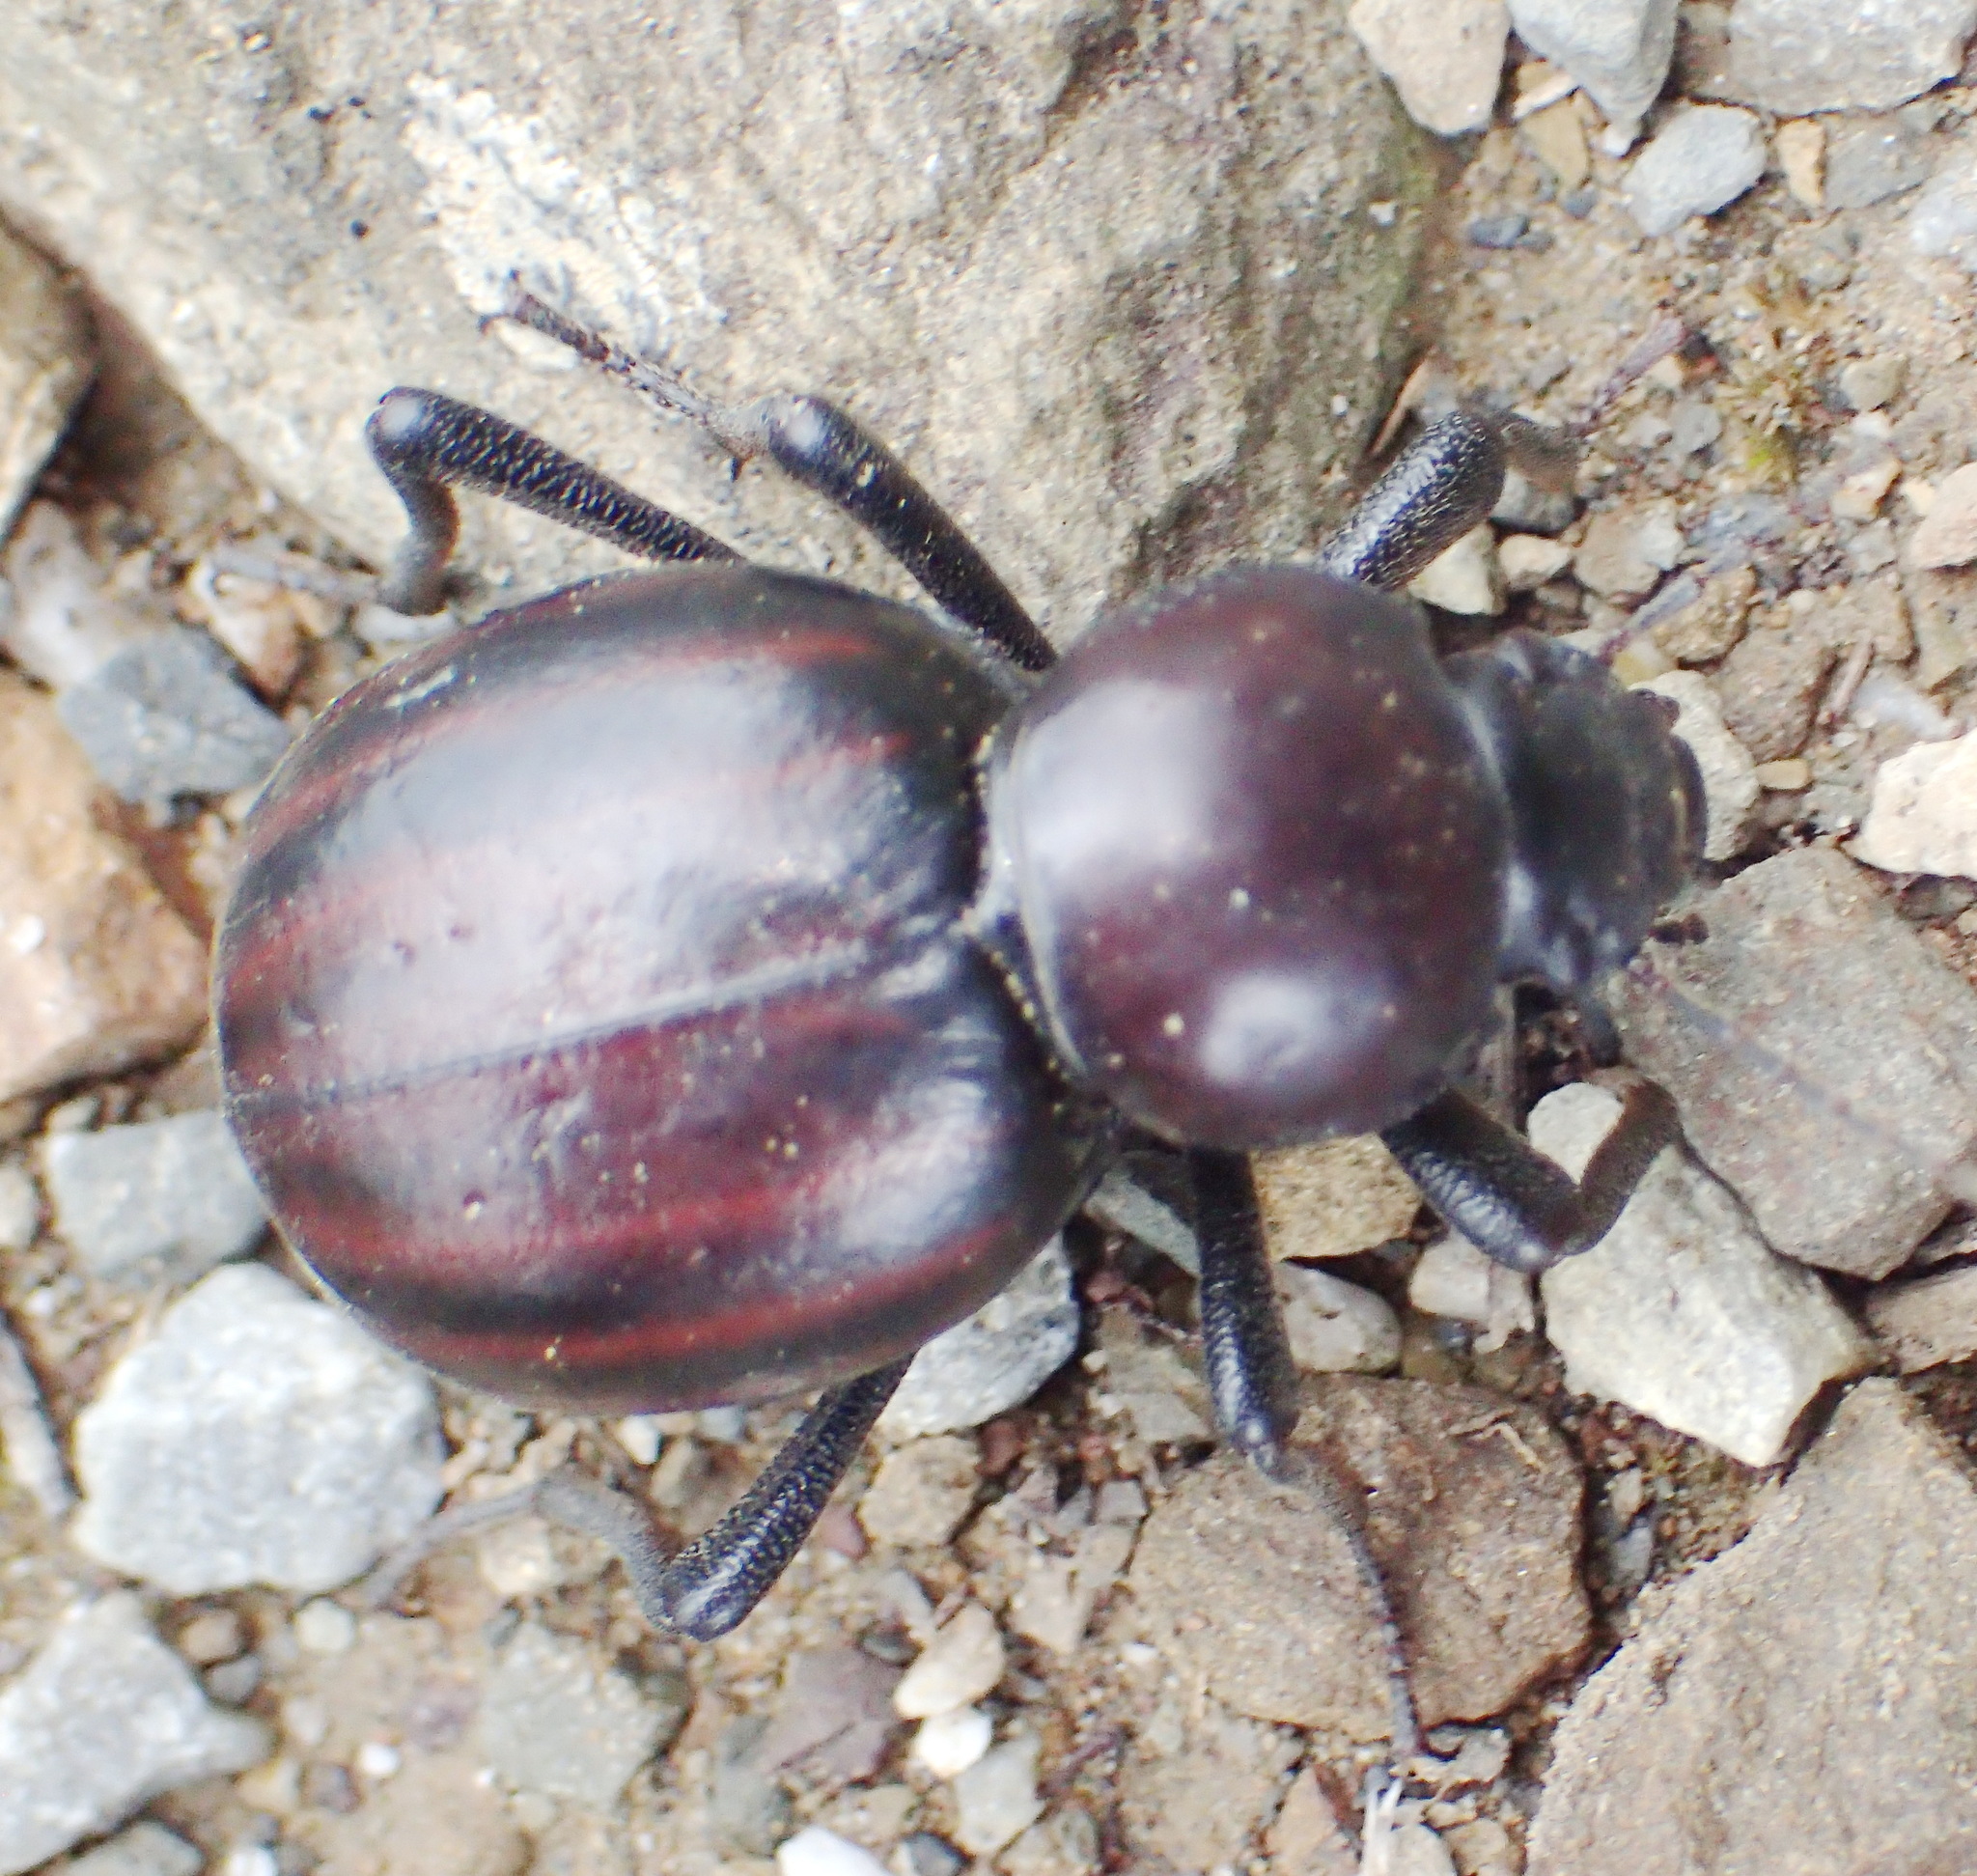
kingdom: Animalia
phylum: Arthropoda
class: Insecta
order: Coleoptera
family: Tenebrionidae
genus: Mariazofia
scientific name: Mariazofia
